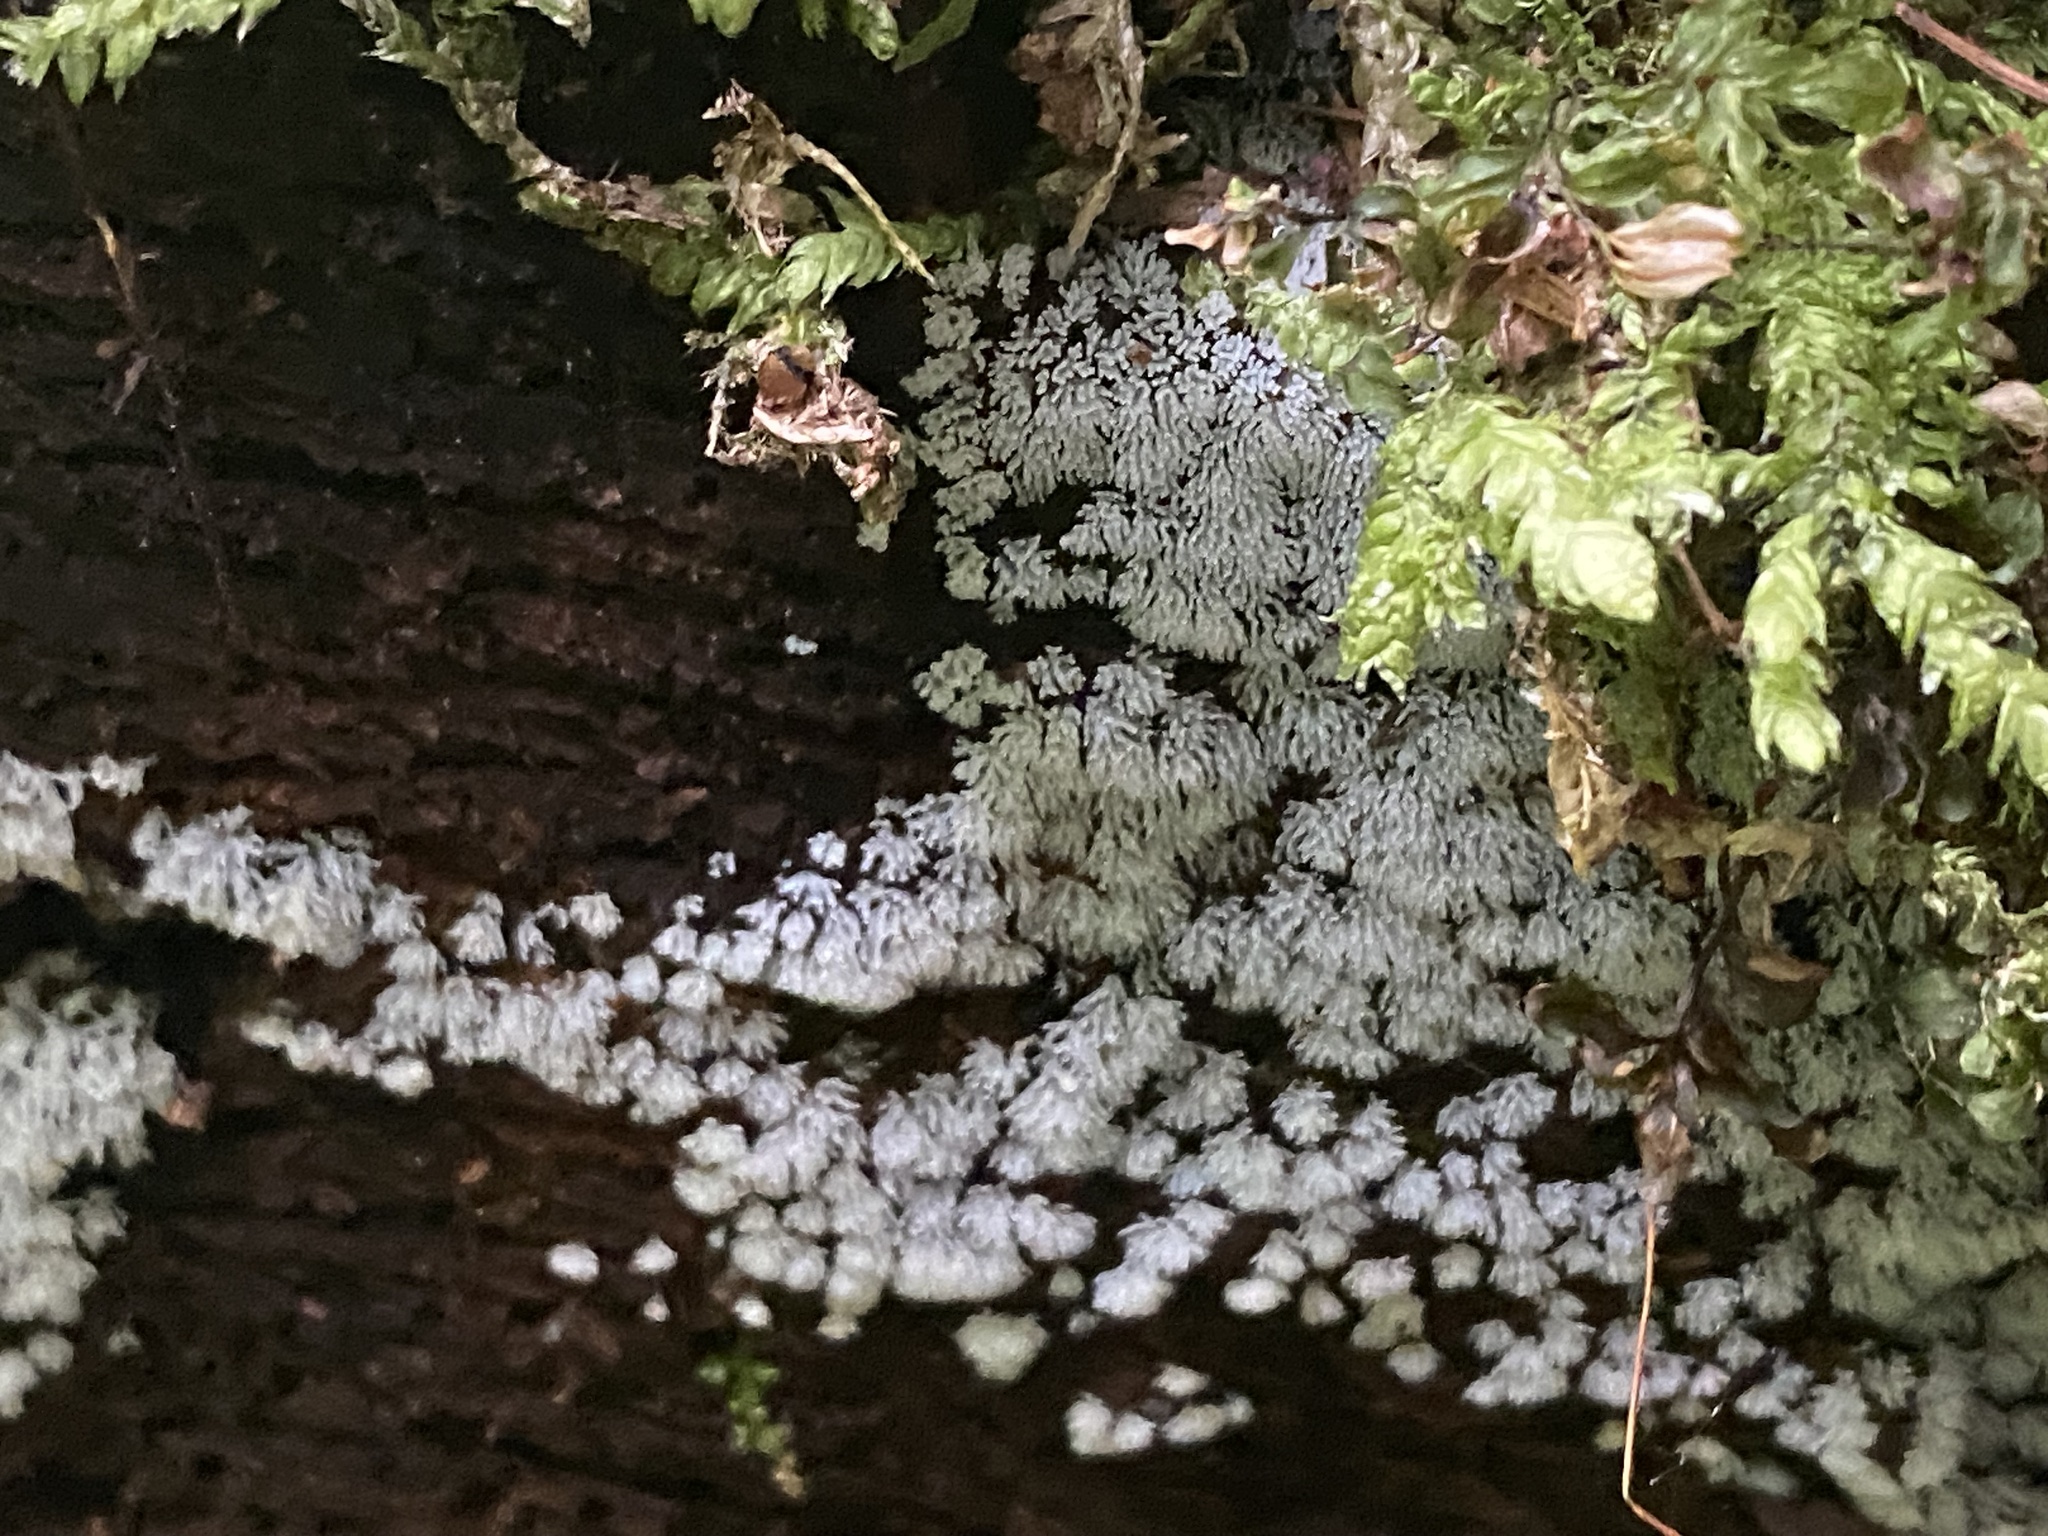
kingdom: Protozoa
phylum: Mycetozoa
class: Protosteliomycetes
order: Ceratiomyxales
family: Ceratiomyxaceae
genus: Ceratiomyxa
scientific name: Ceratiomyxa fruticulosa
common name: Honeycomb coral slime mold
